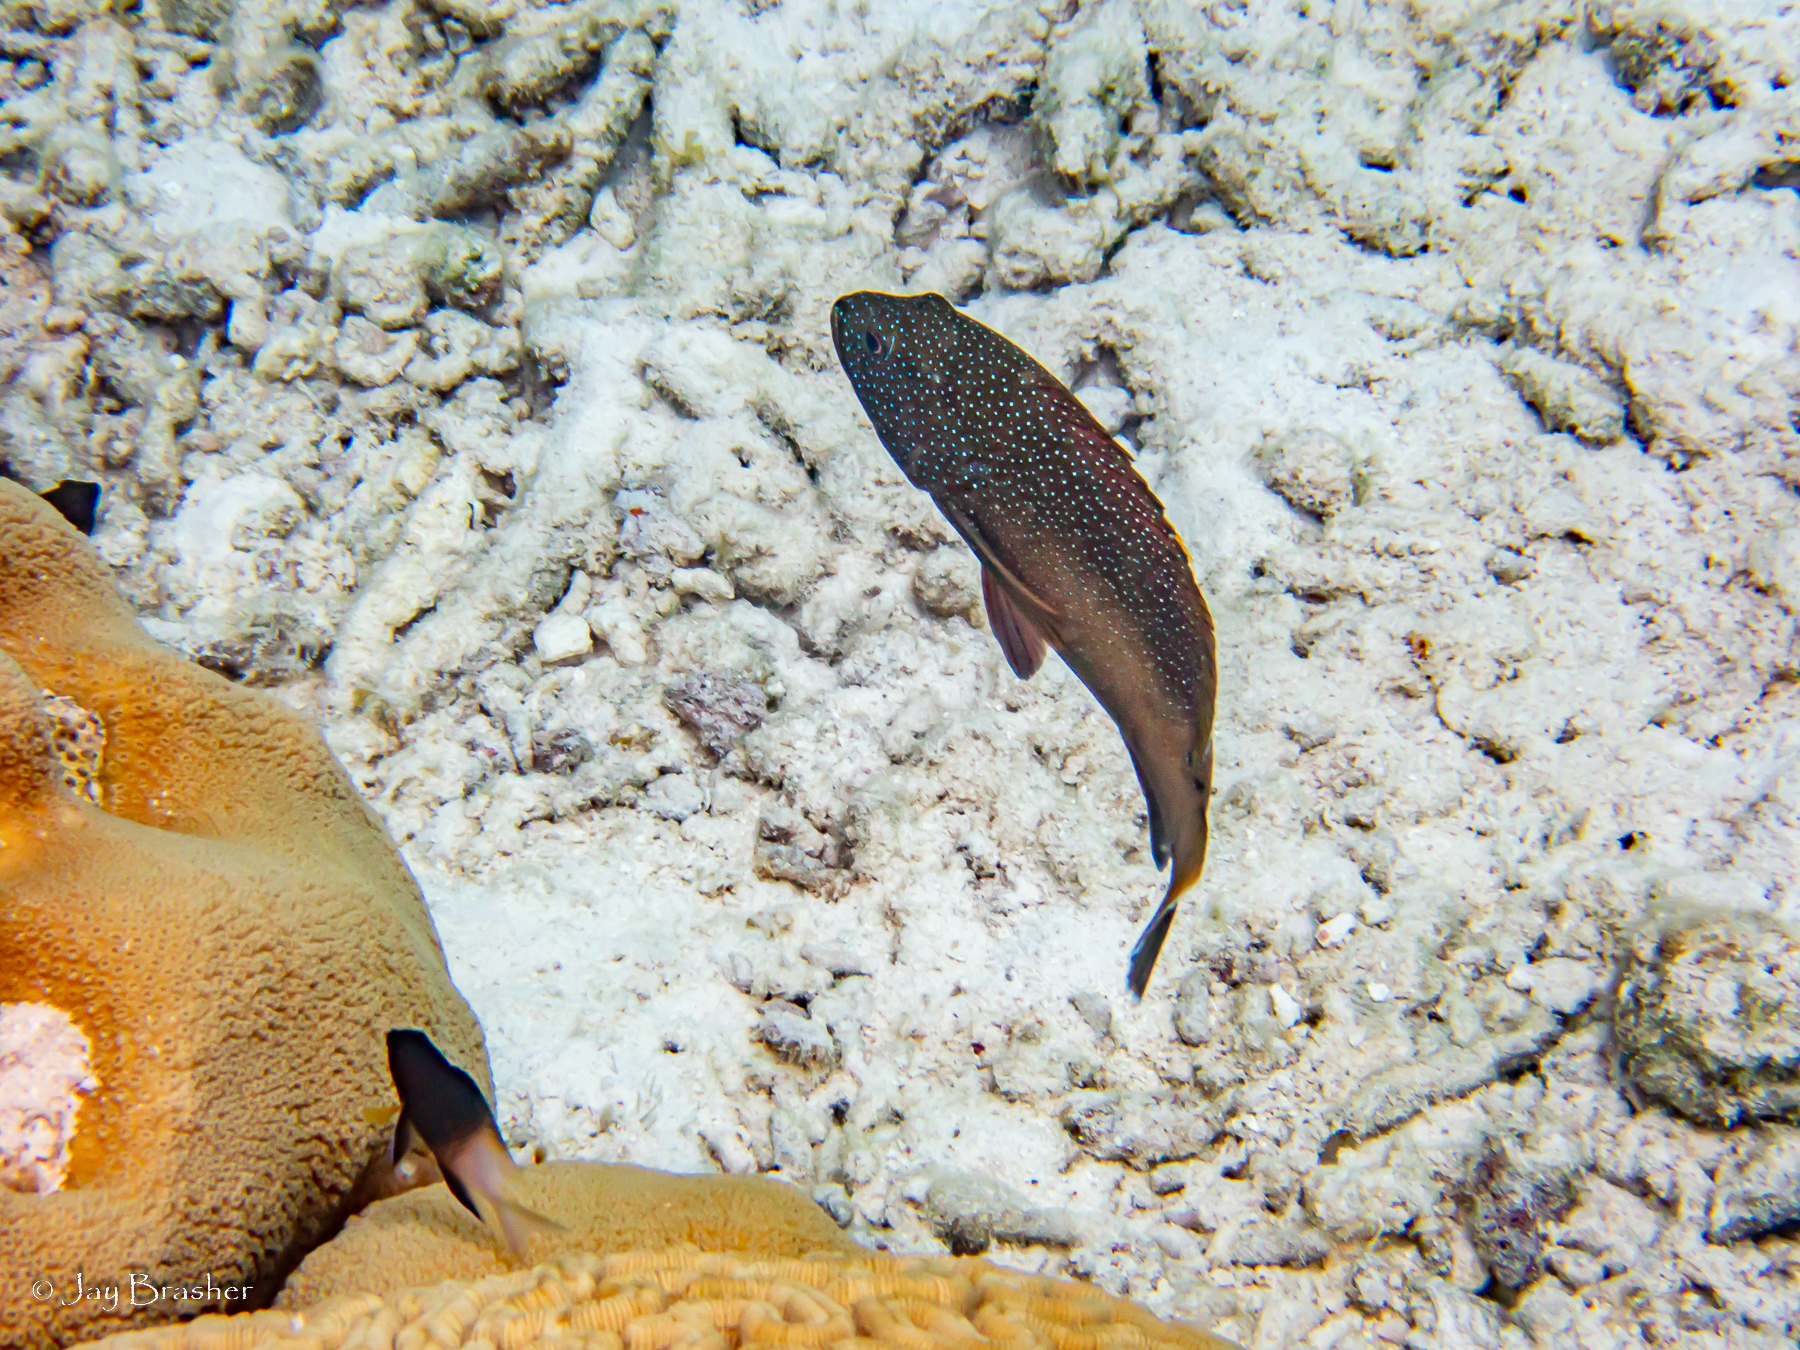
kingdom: Animalia
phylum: Chordata
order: Perciformes
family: Serranidae
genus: Cephalopholis
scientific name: Cephalopholis fulva
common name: Butterfish
